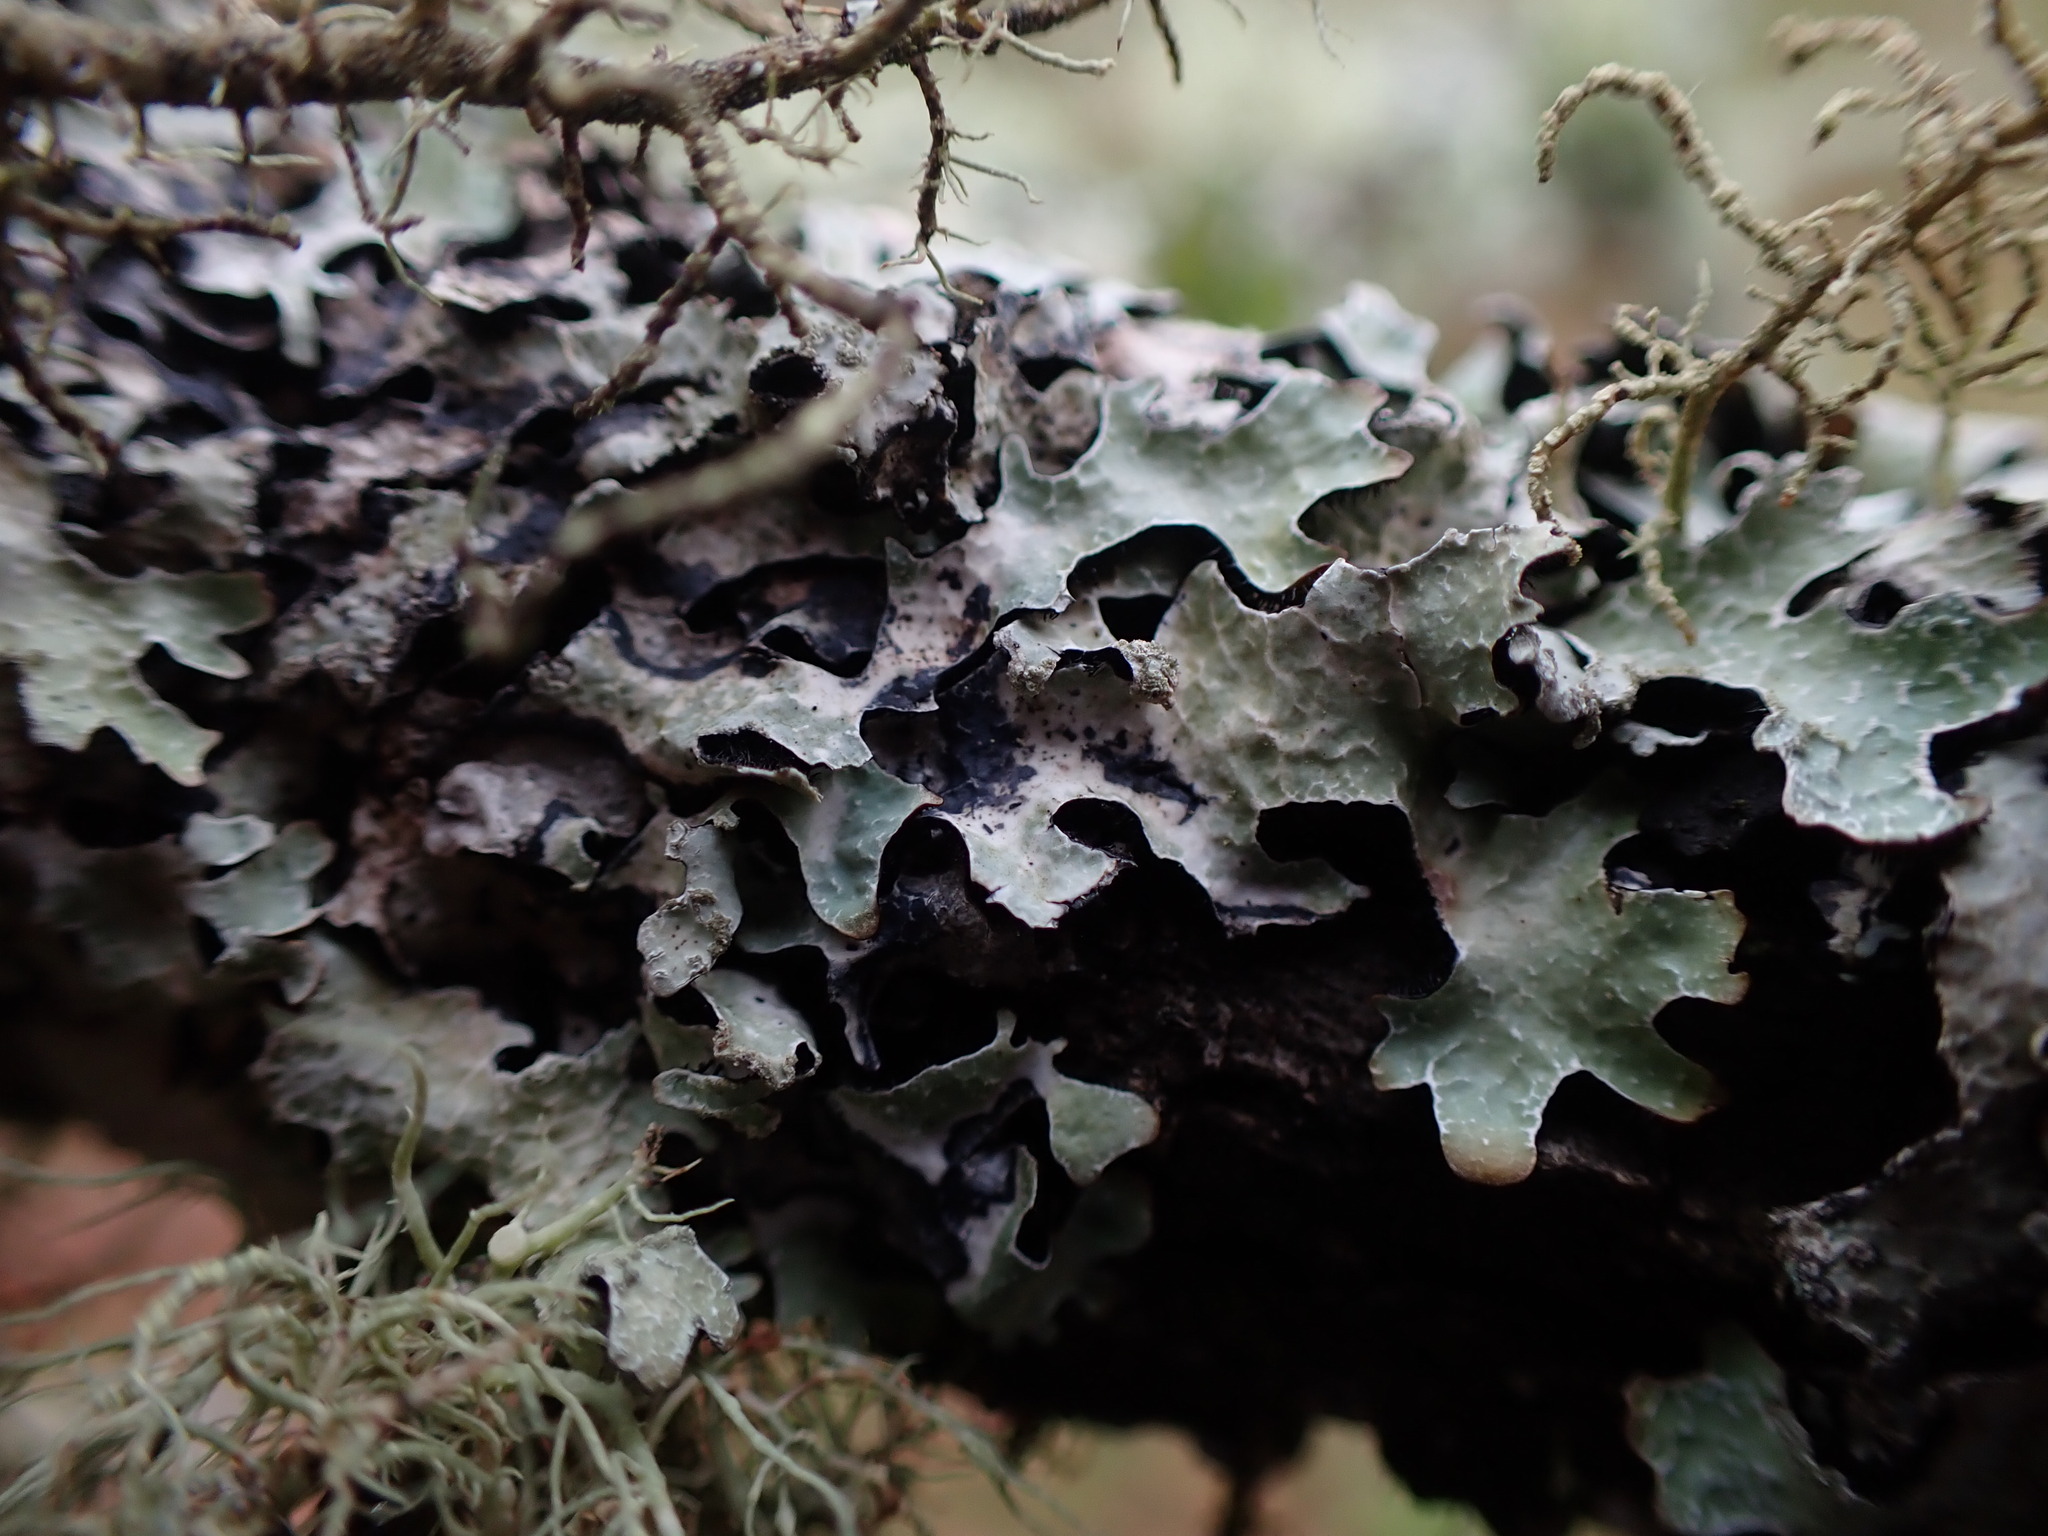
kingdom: Fungi
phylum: Ascomycota
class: Lecanoromycetes
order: Lecanorales
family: Parmeliaceae
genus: Parmelia
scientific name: Parmelia sulcata
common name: Netted shield lichen
